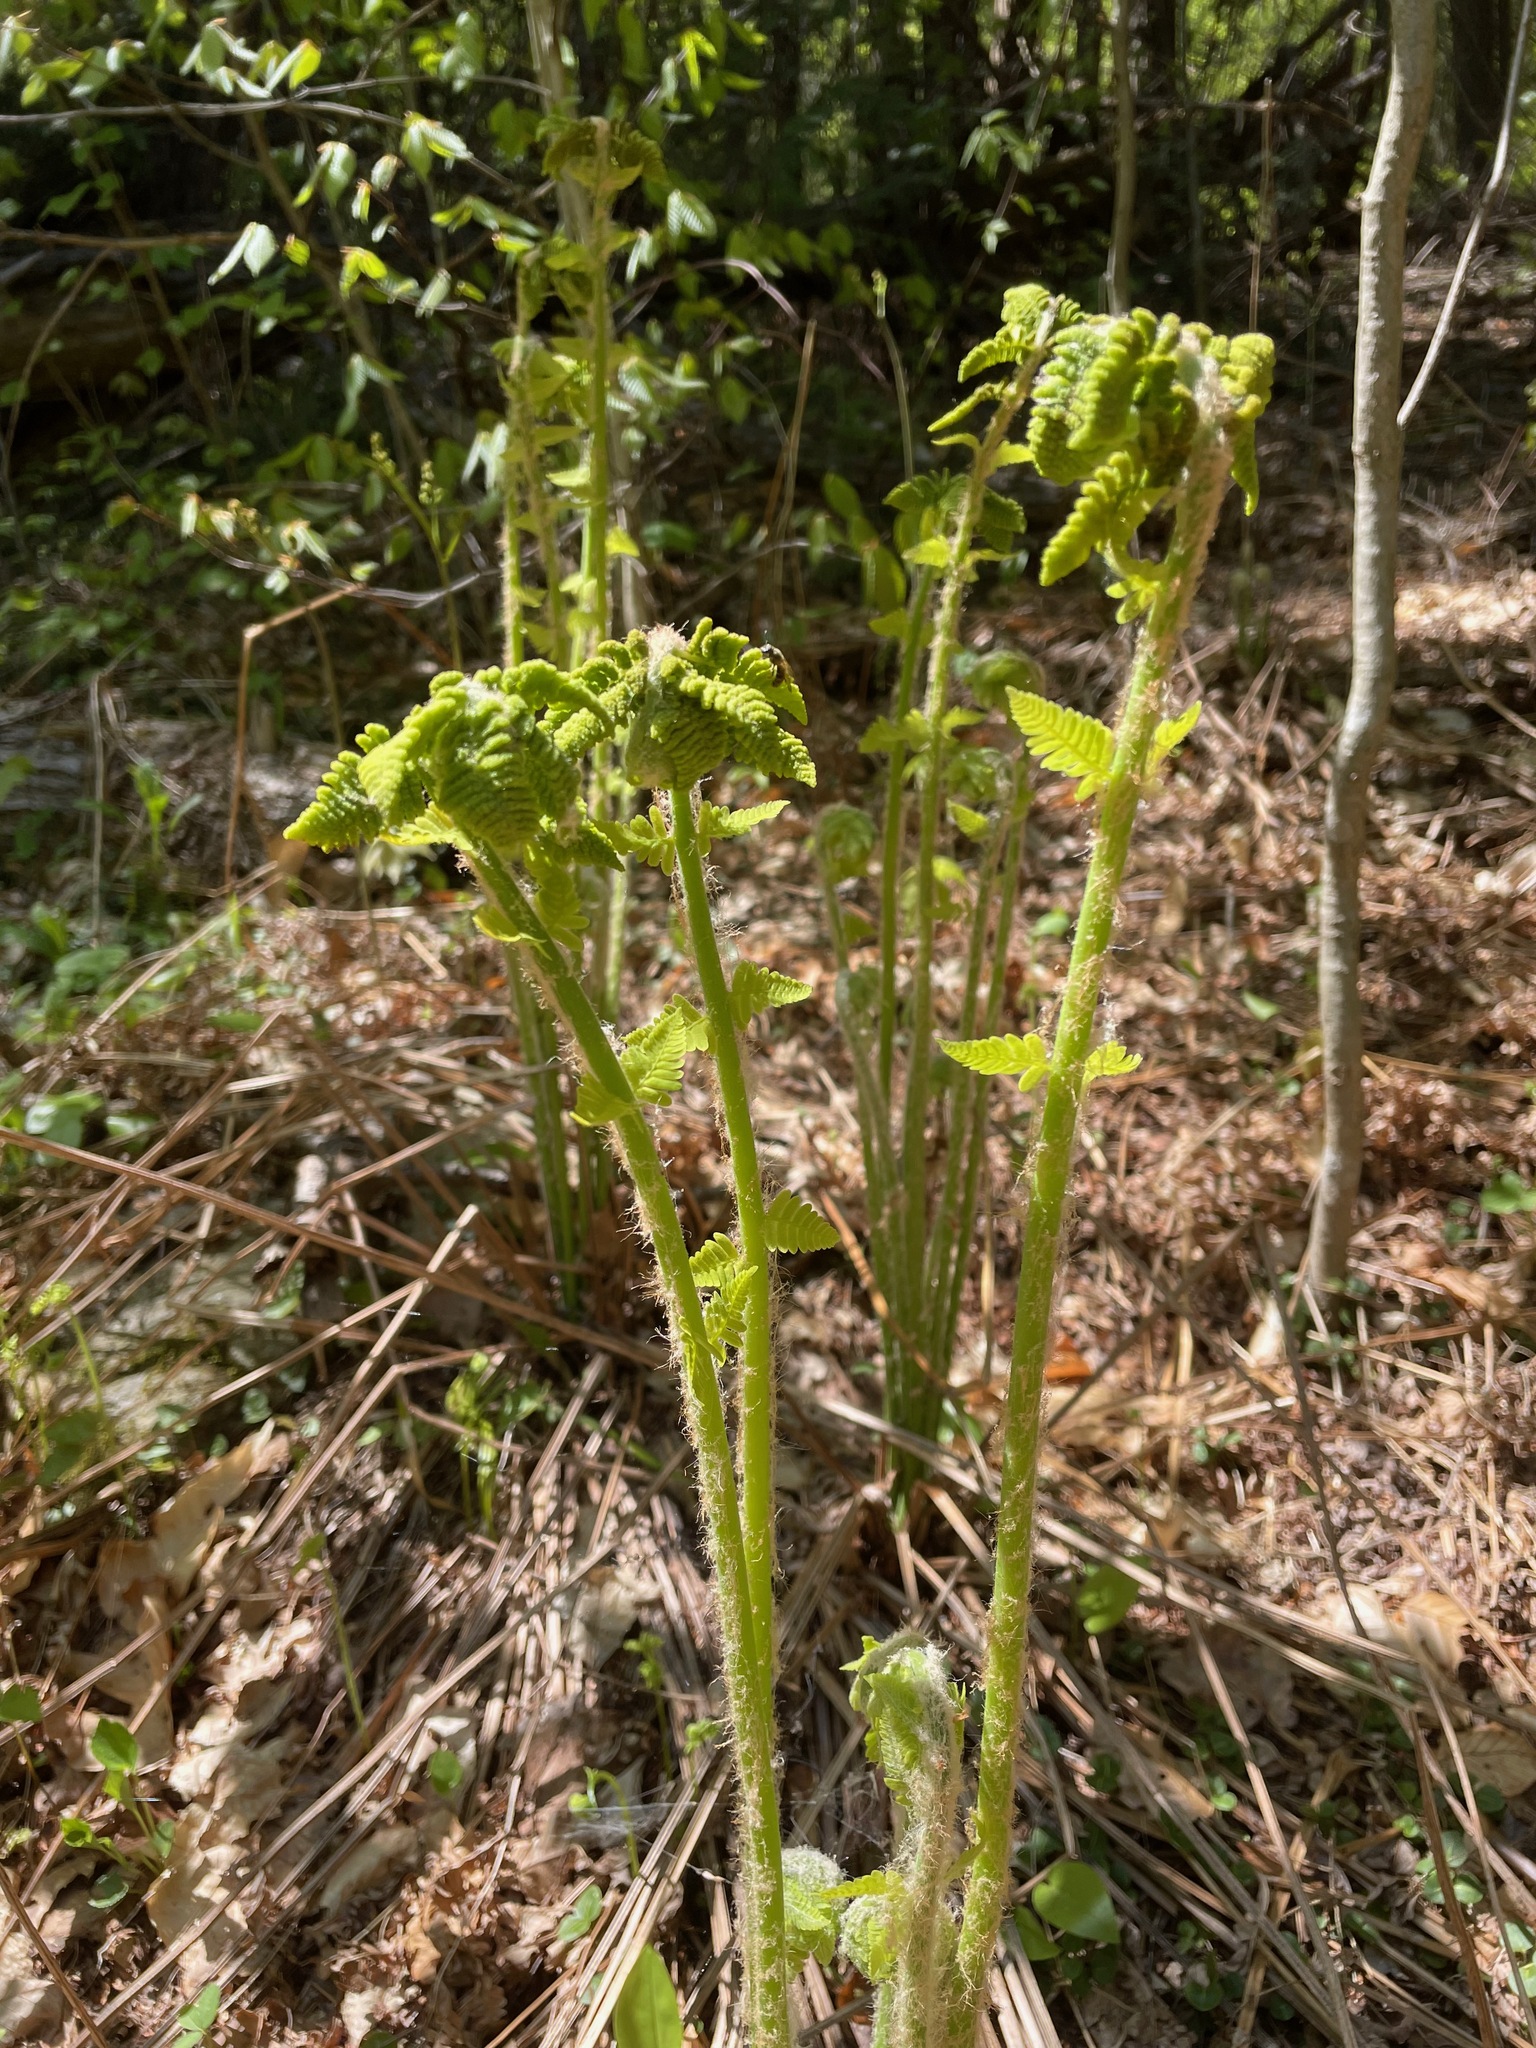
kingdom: Plantae
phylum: Tracheophyta
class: Polypodiopsida
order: Osmundales
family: Osmundaceae
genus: Claytosmunda
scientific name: Claytosmunda claytoniana
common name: Clayton's fern
